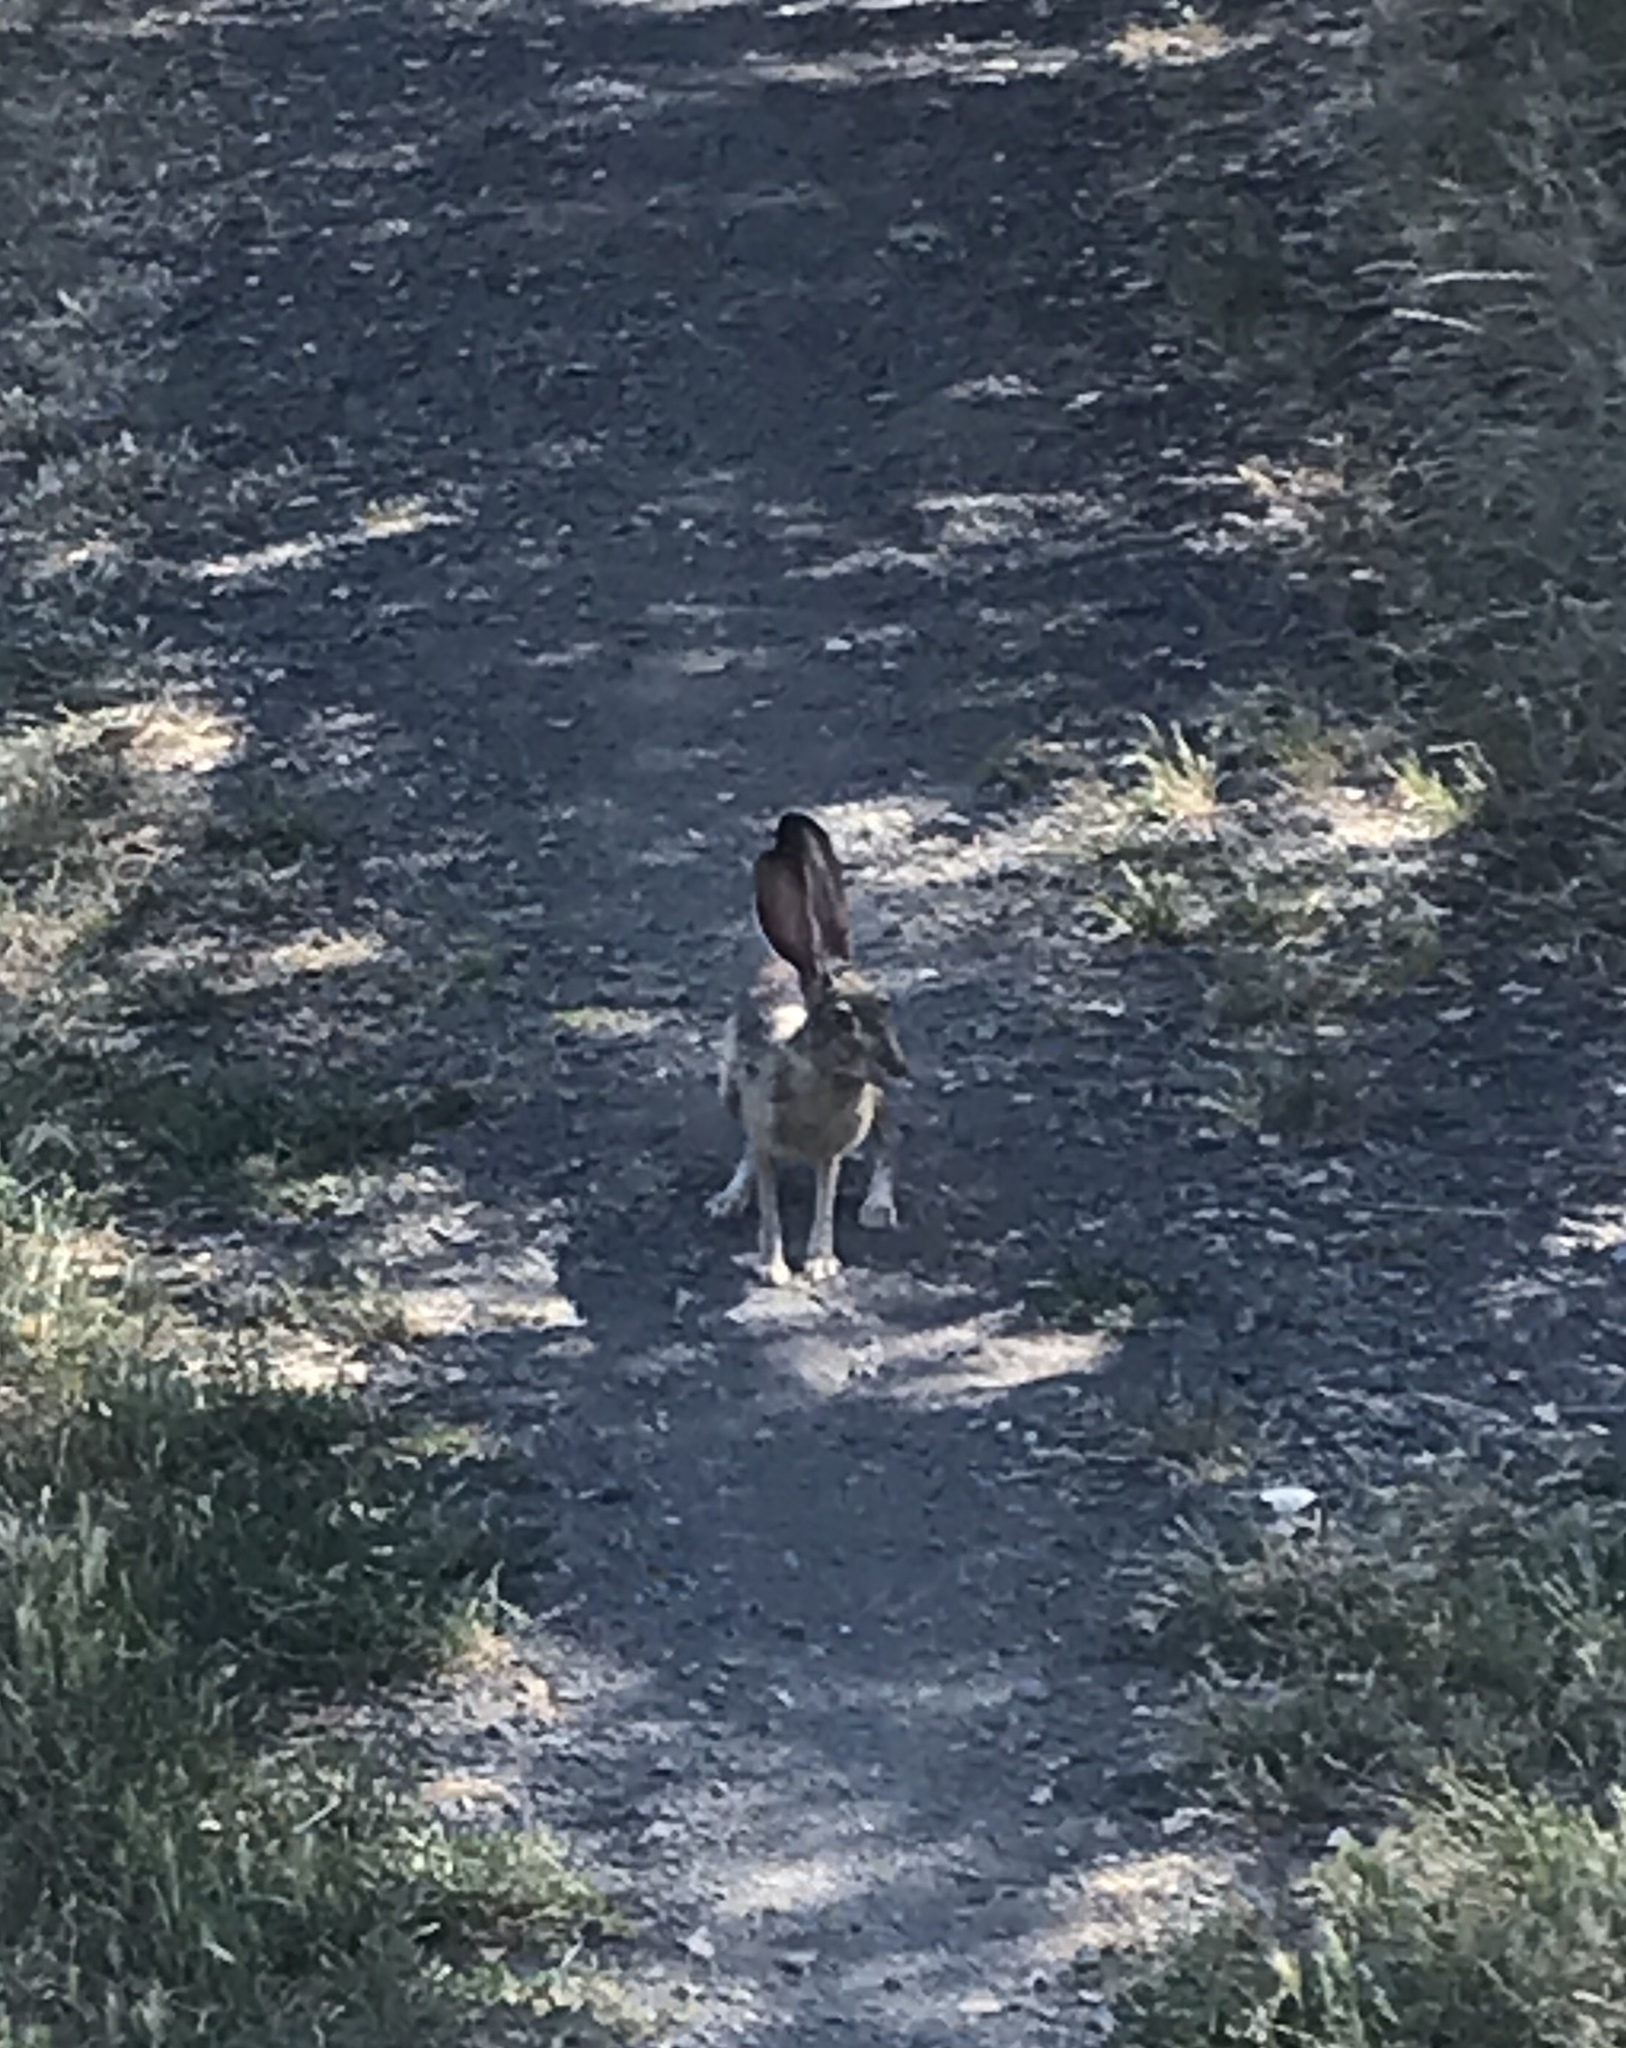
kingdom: Animalia
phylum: Chordata
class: Mammalia
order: Lagomorpha
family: Leporidae
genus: Lepus
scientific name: Lepus californicus
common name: Black-tailed jackrabbit
